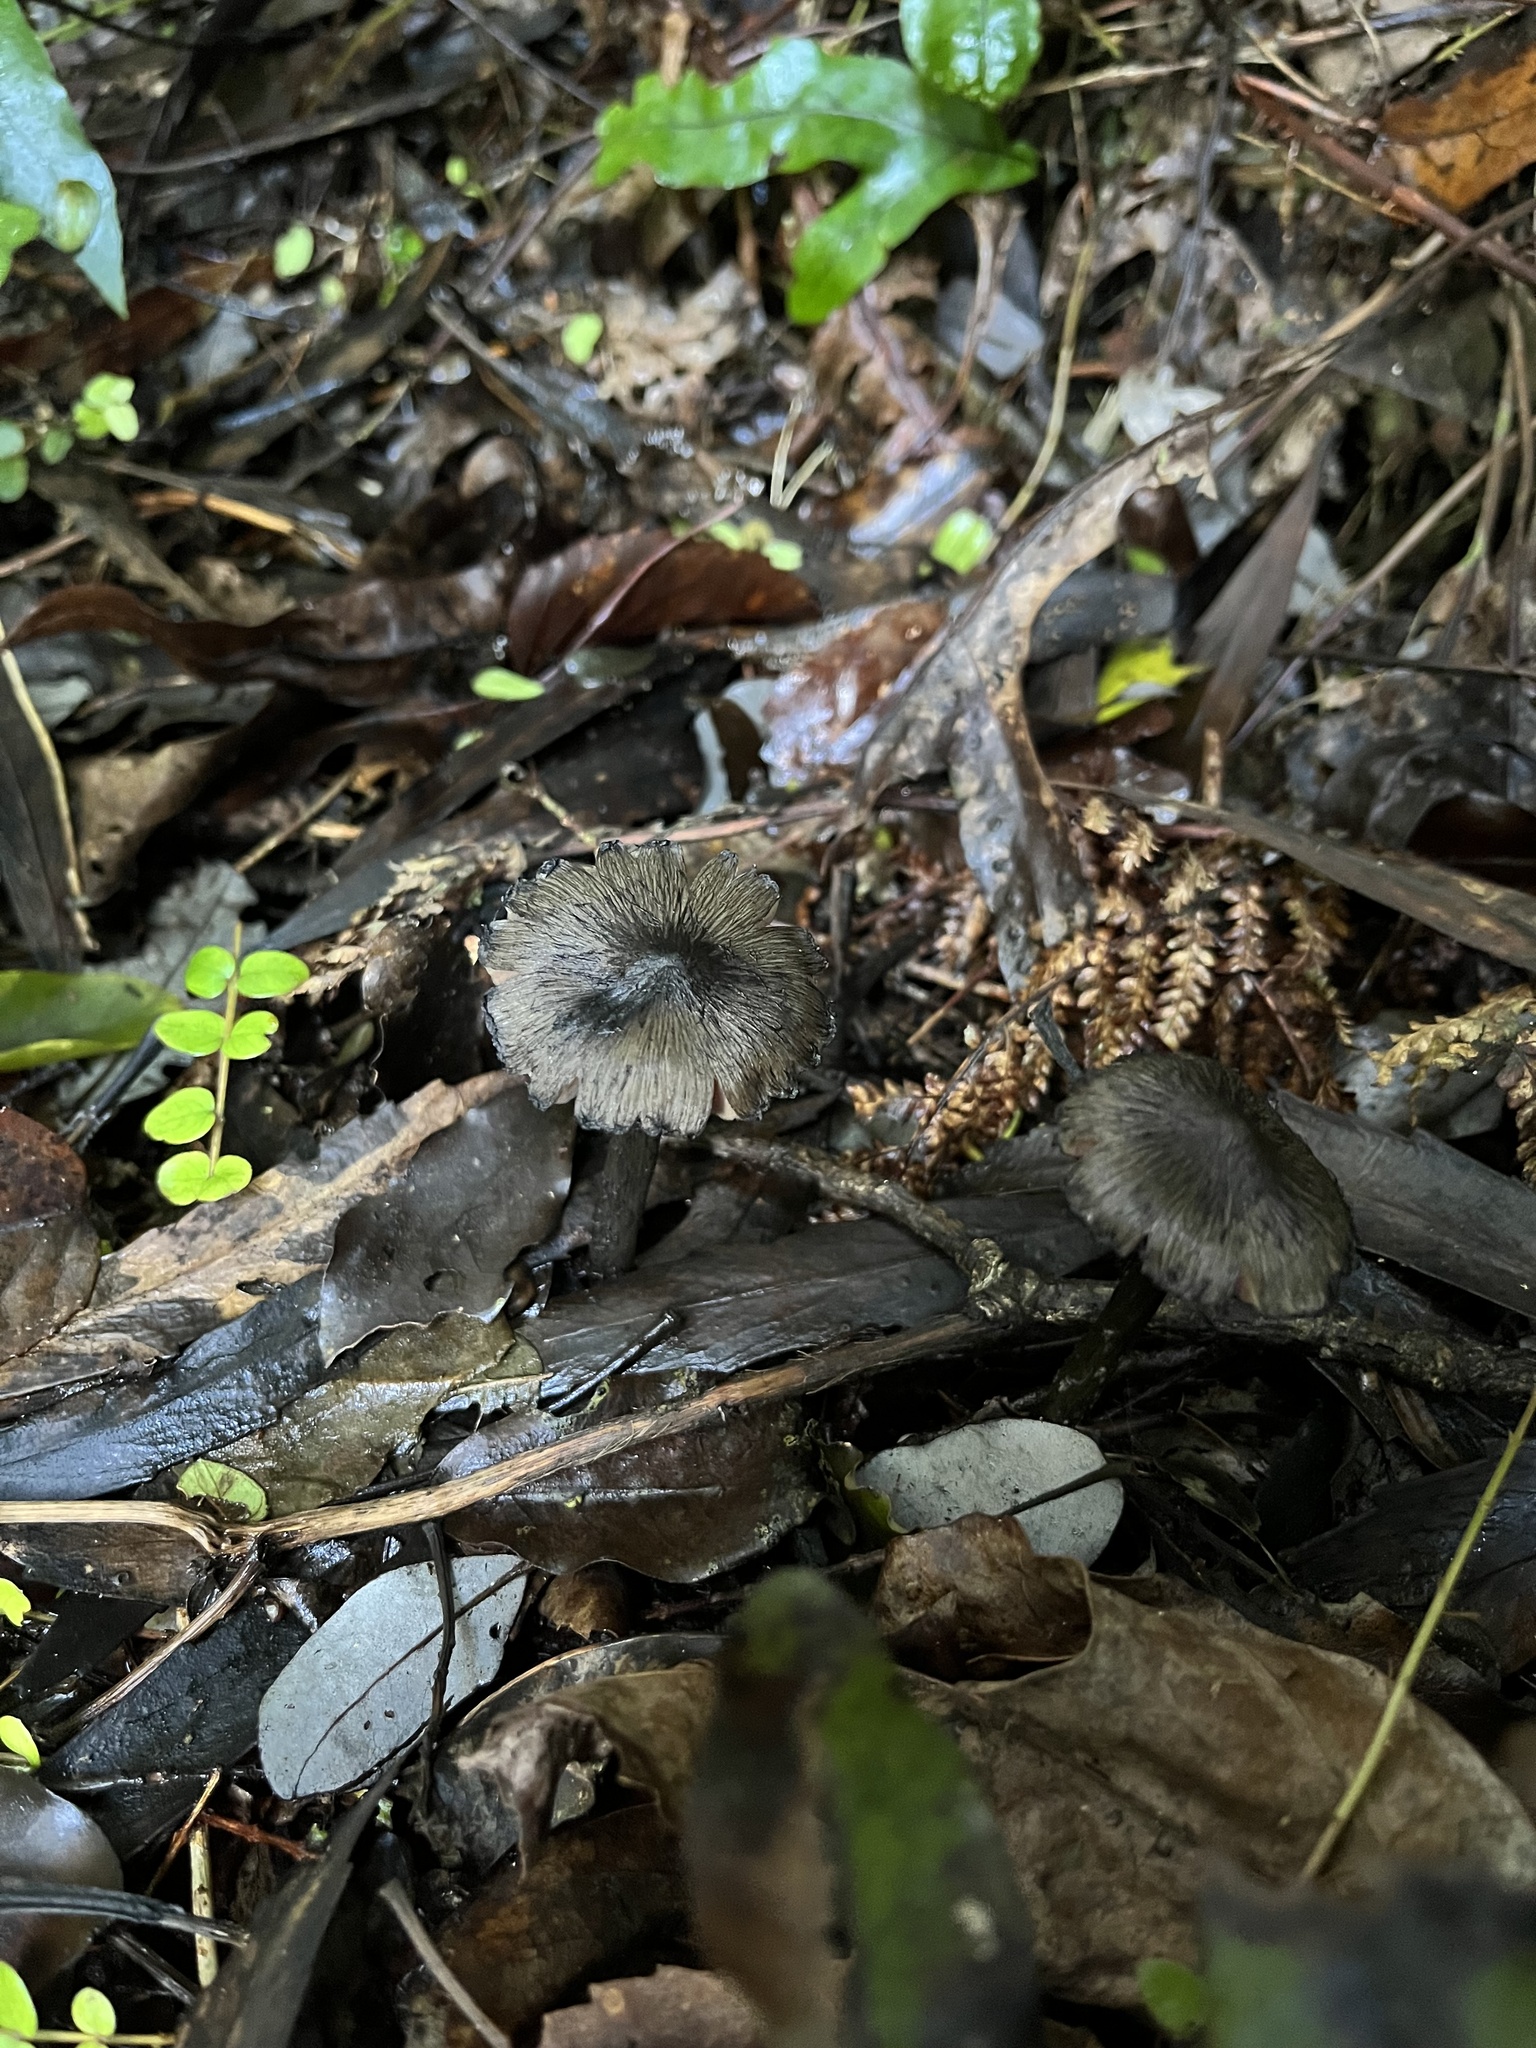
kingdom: Fungi
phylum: Basidiomycota
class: Agaricomycetes
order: Agaricales
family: Hygrophoraceae
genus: Hygrocybe
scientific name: Hygrocybe astatogala
